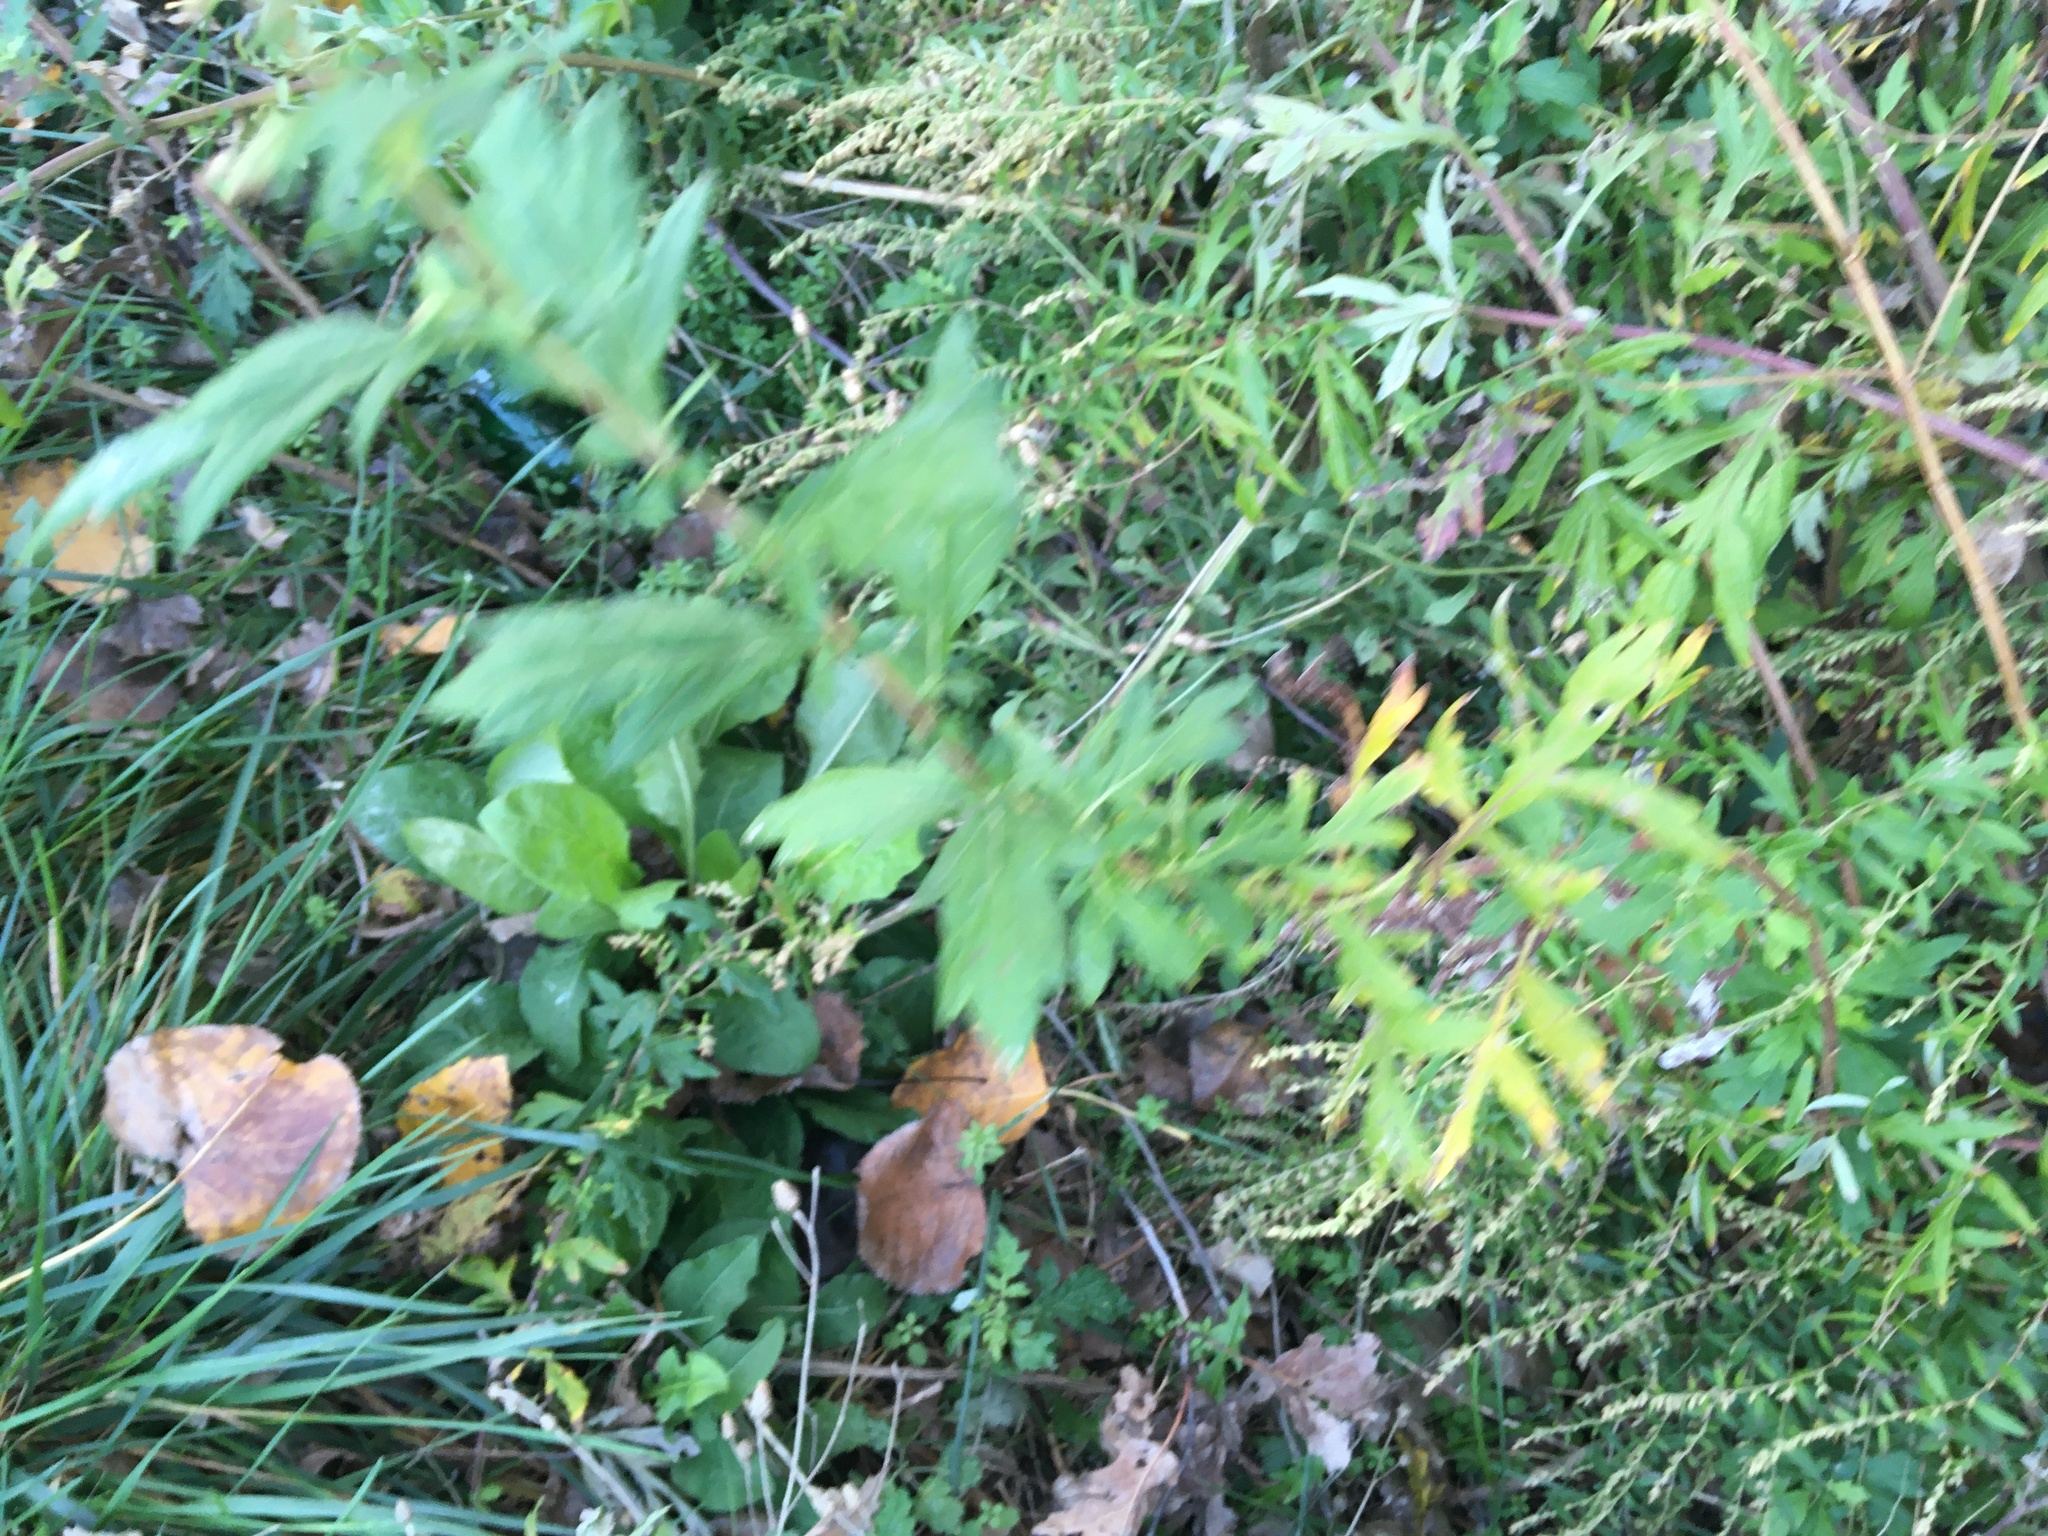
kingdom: Plantae
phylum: Tracheophyta
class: Magnoliopsida
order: Asterales
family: Asteraceae
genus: Artemisia
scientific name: Artemisia vulgaris
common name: Mugwort
